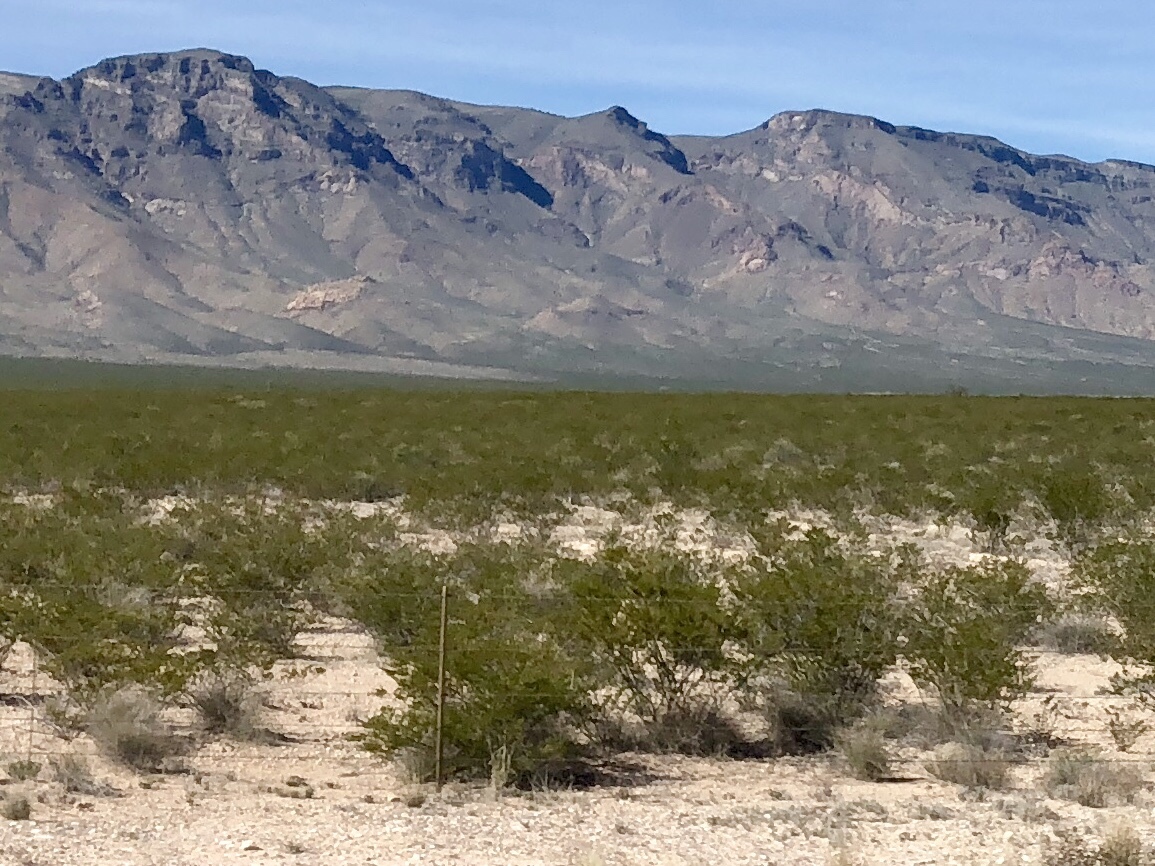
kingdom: Plantae
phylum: Tracheophyta
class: Magnoliopsida
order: Zygophyllales
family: Zygophyllaceae
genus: Larrea
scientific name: Larrea tridentata
